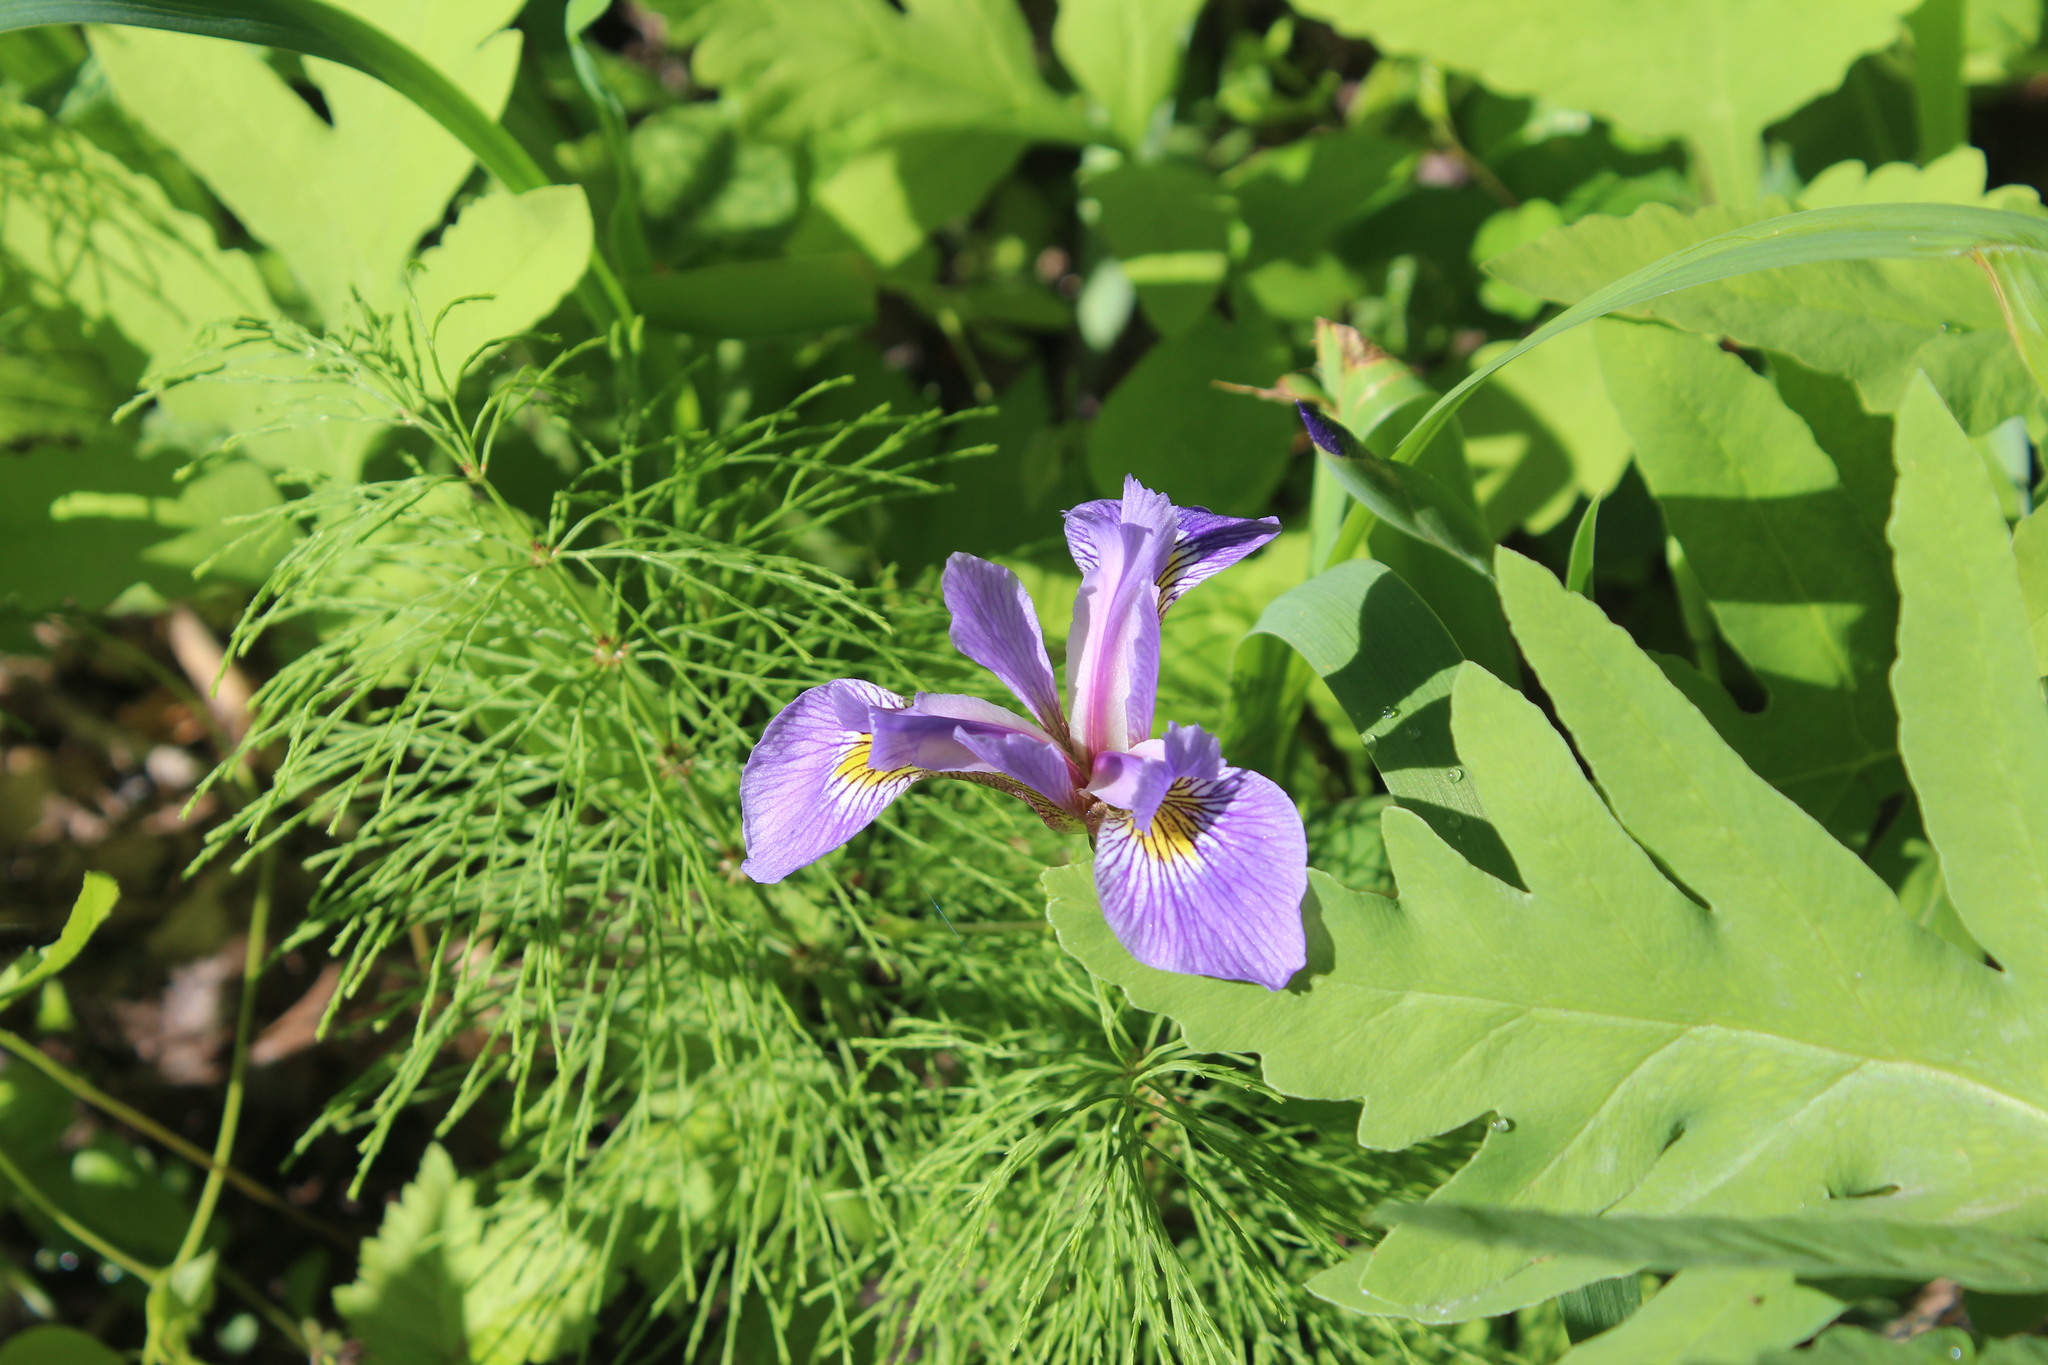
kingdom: Plantae
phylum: Tracheophyta
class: Liliopsida
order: Asparagales
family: Iridaceae
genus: Iris
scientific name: Iris versicolor
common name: Purple iris
